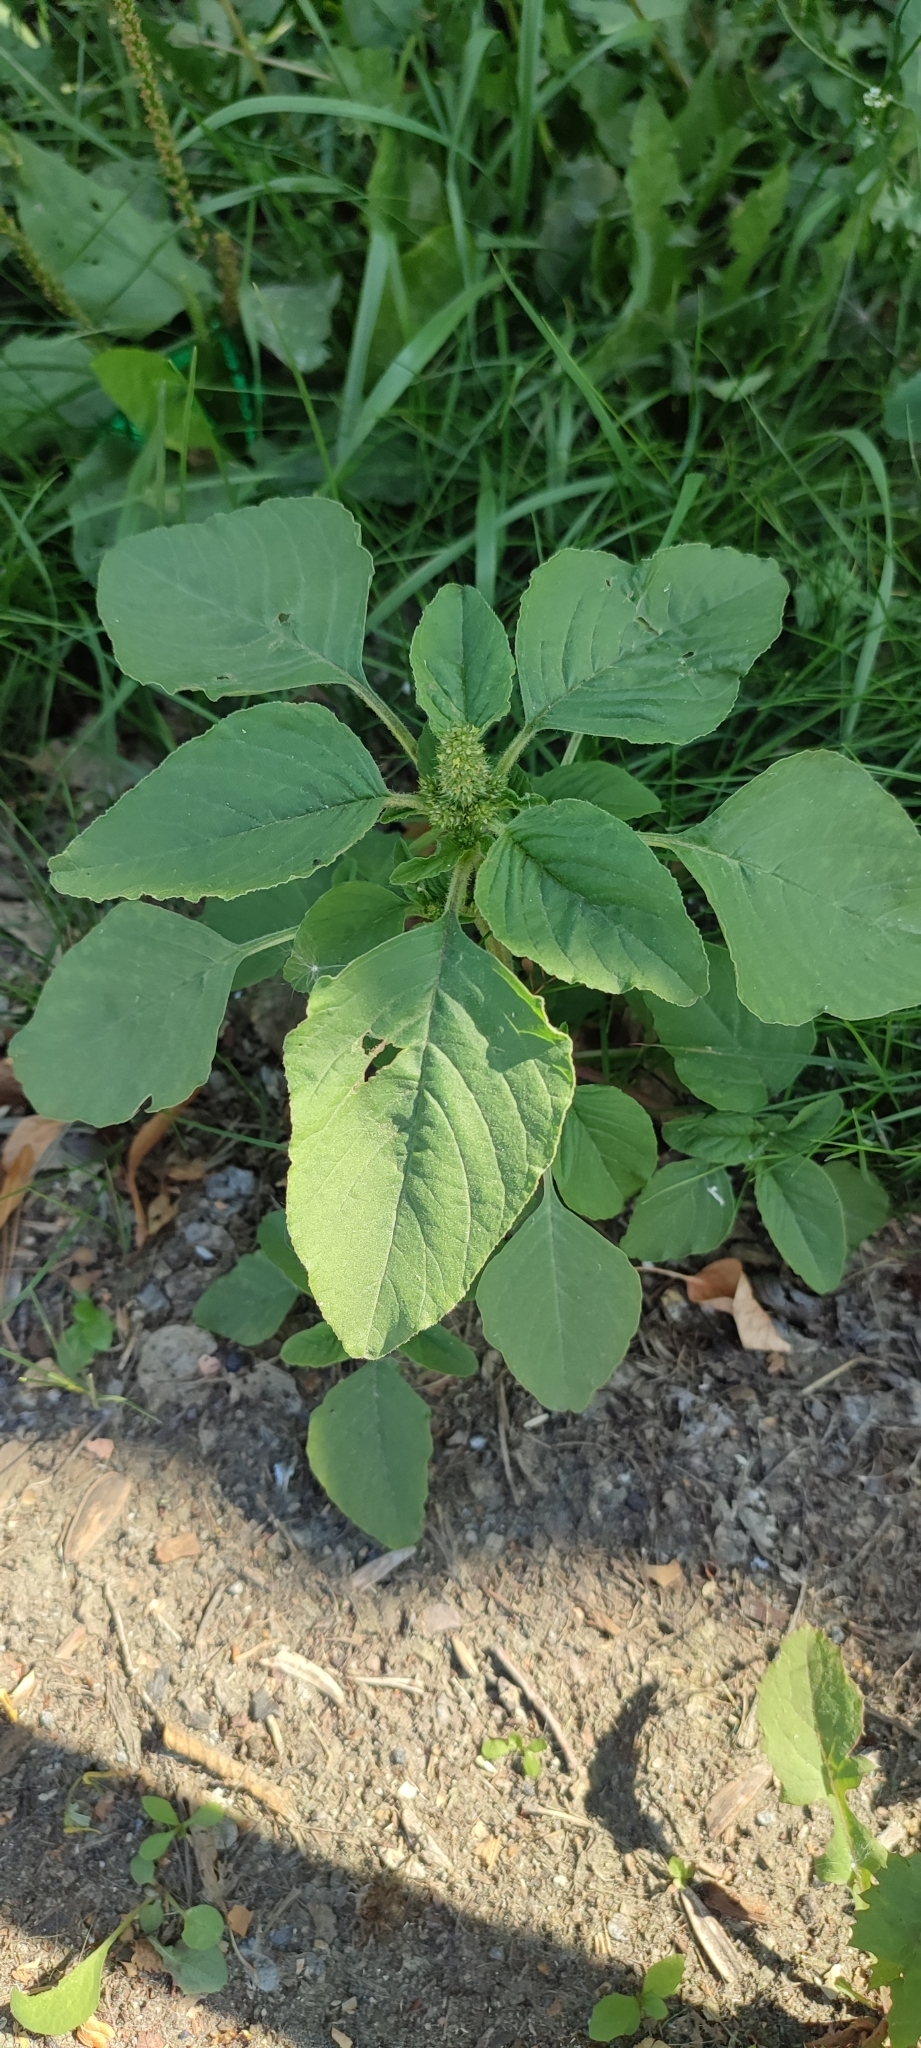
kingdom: Plantae
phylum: Tracheophyta
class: Magnoliopsida
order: Caryophyllales
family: Amaranthaceae
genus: Amaranthus
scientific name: Amaranthus retroflexus
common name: Redroot amaranth
